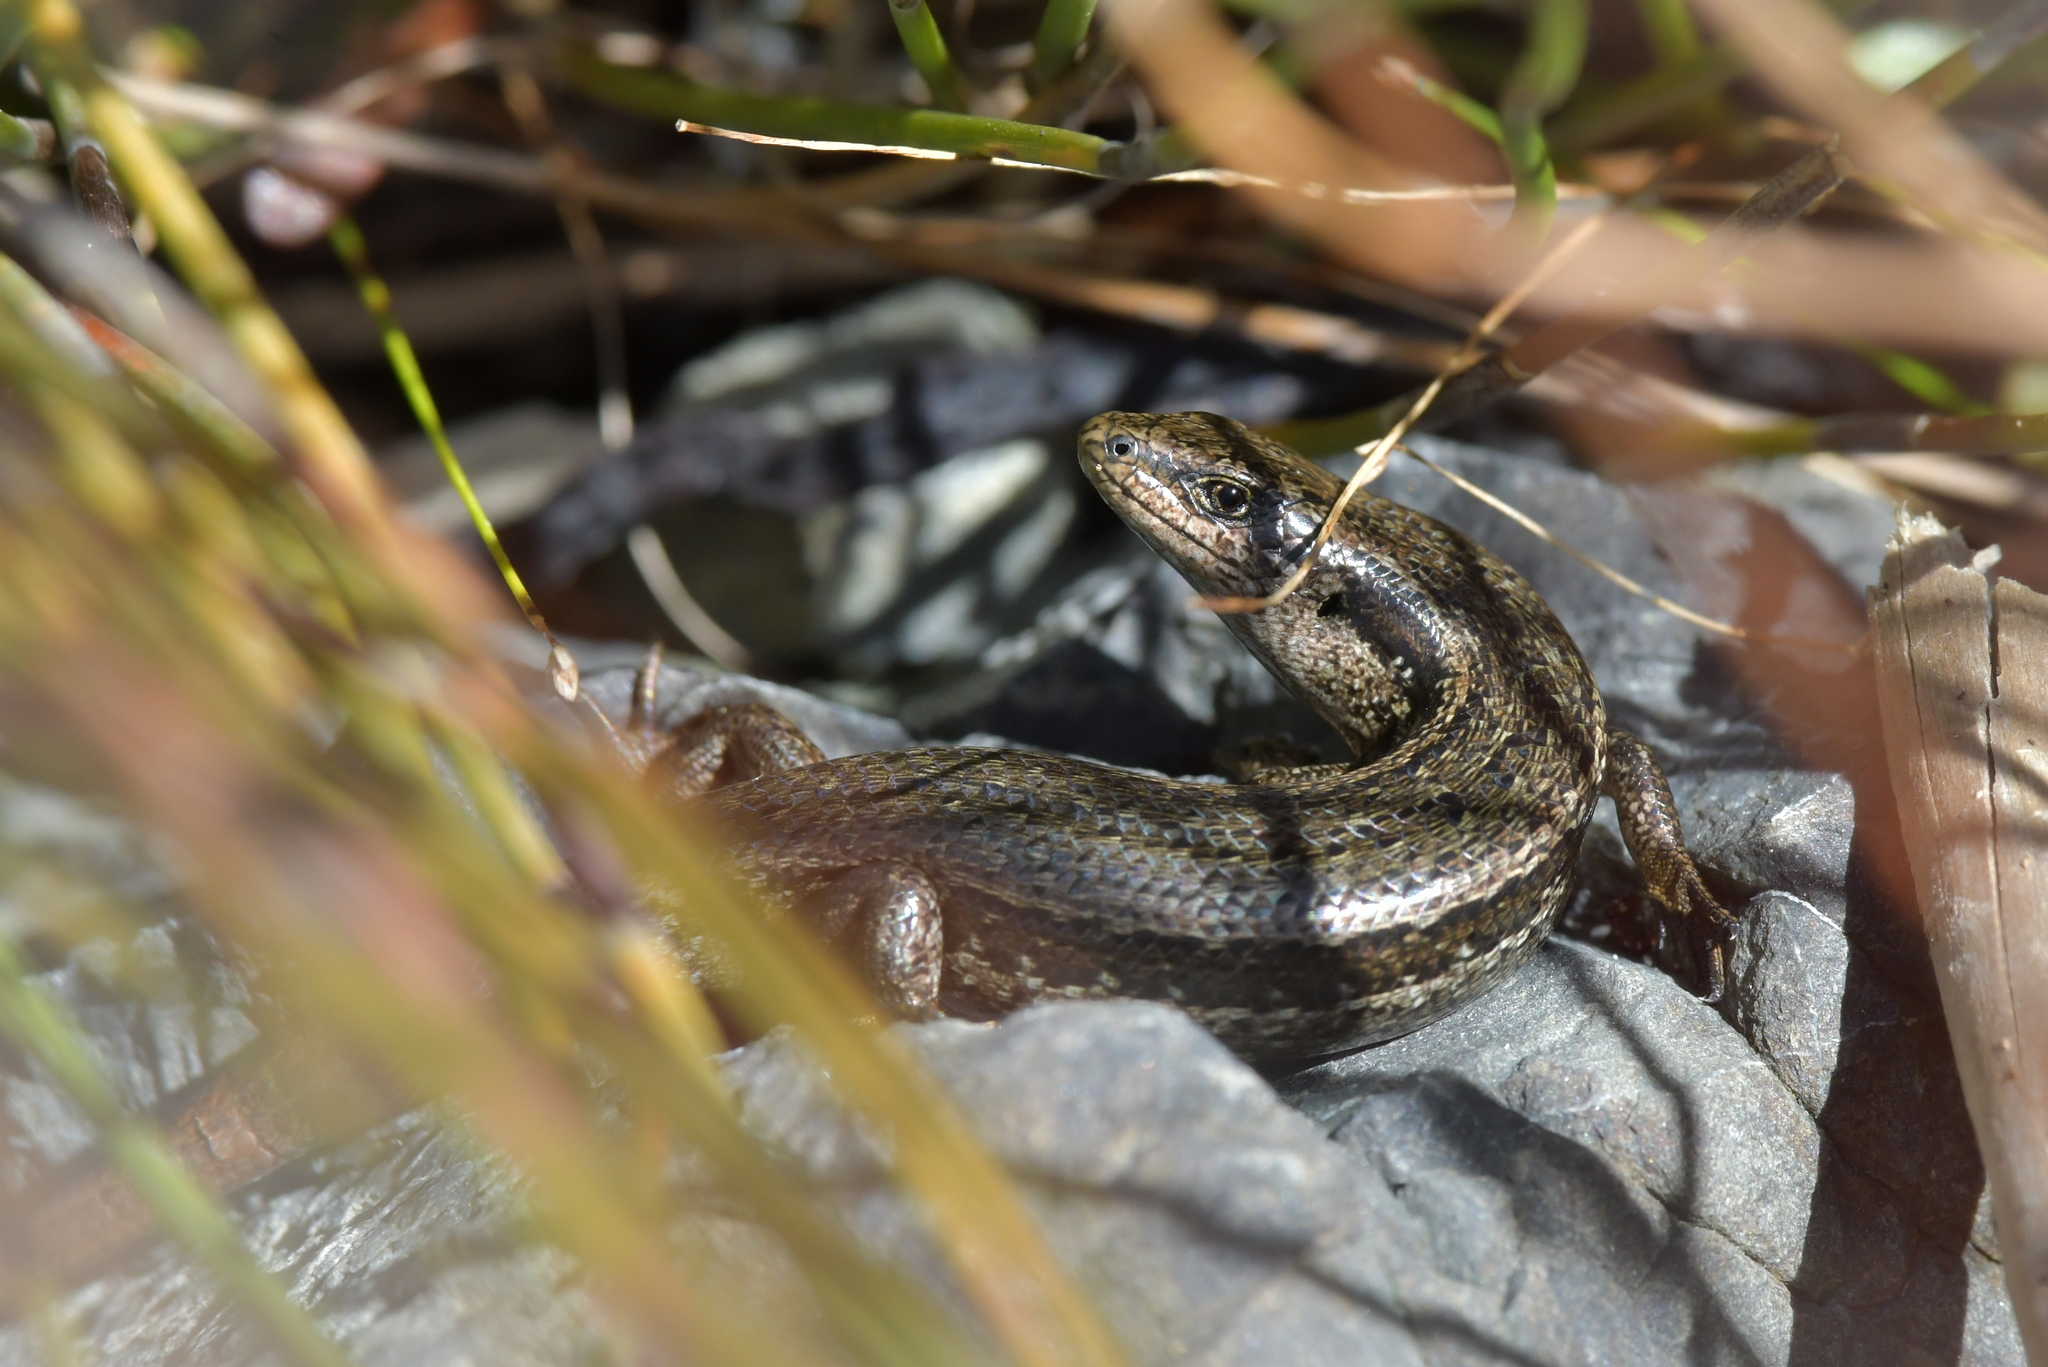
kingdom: Animalia
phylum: Chordata
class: Squamata
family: Scincidae
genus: Oligosoma
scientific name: Oligosoma polychroma
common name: Common new zealand skink
